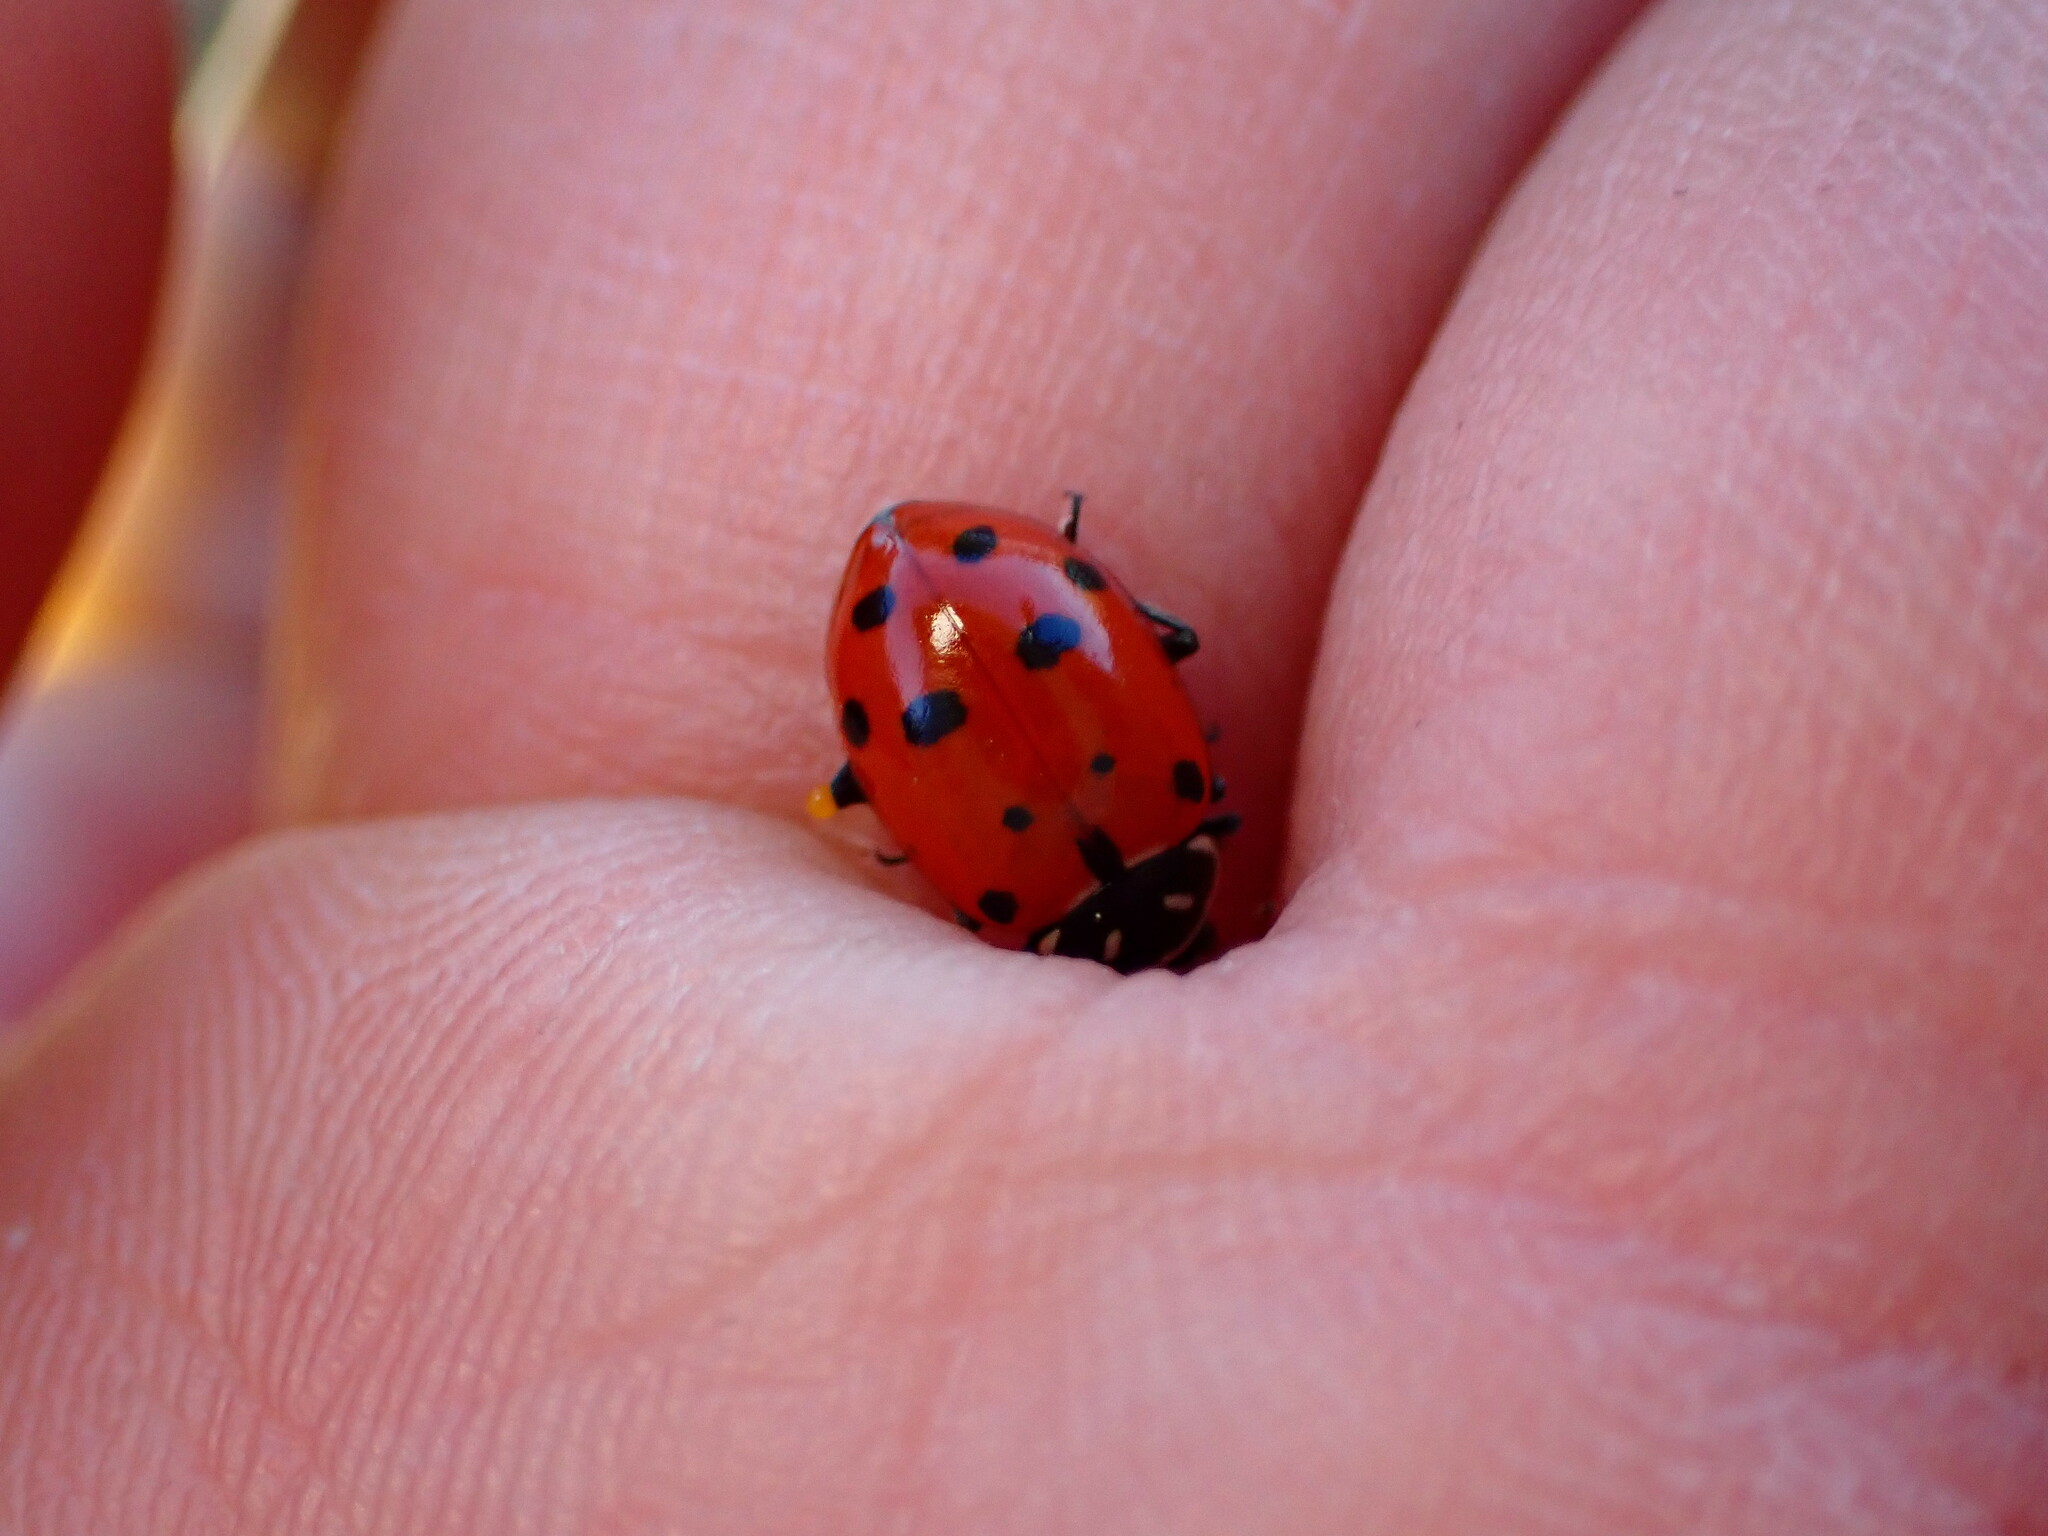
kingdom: Animalia
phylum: Arthropoda
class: Insecta
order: Coleoptera
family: Coccinellidae
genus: Hippodamia
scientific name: Hippodamia convergens
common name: Convergent lady beetle
